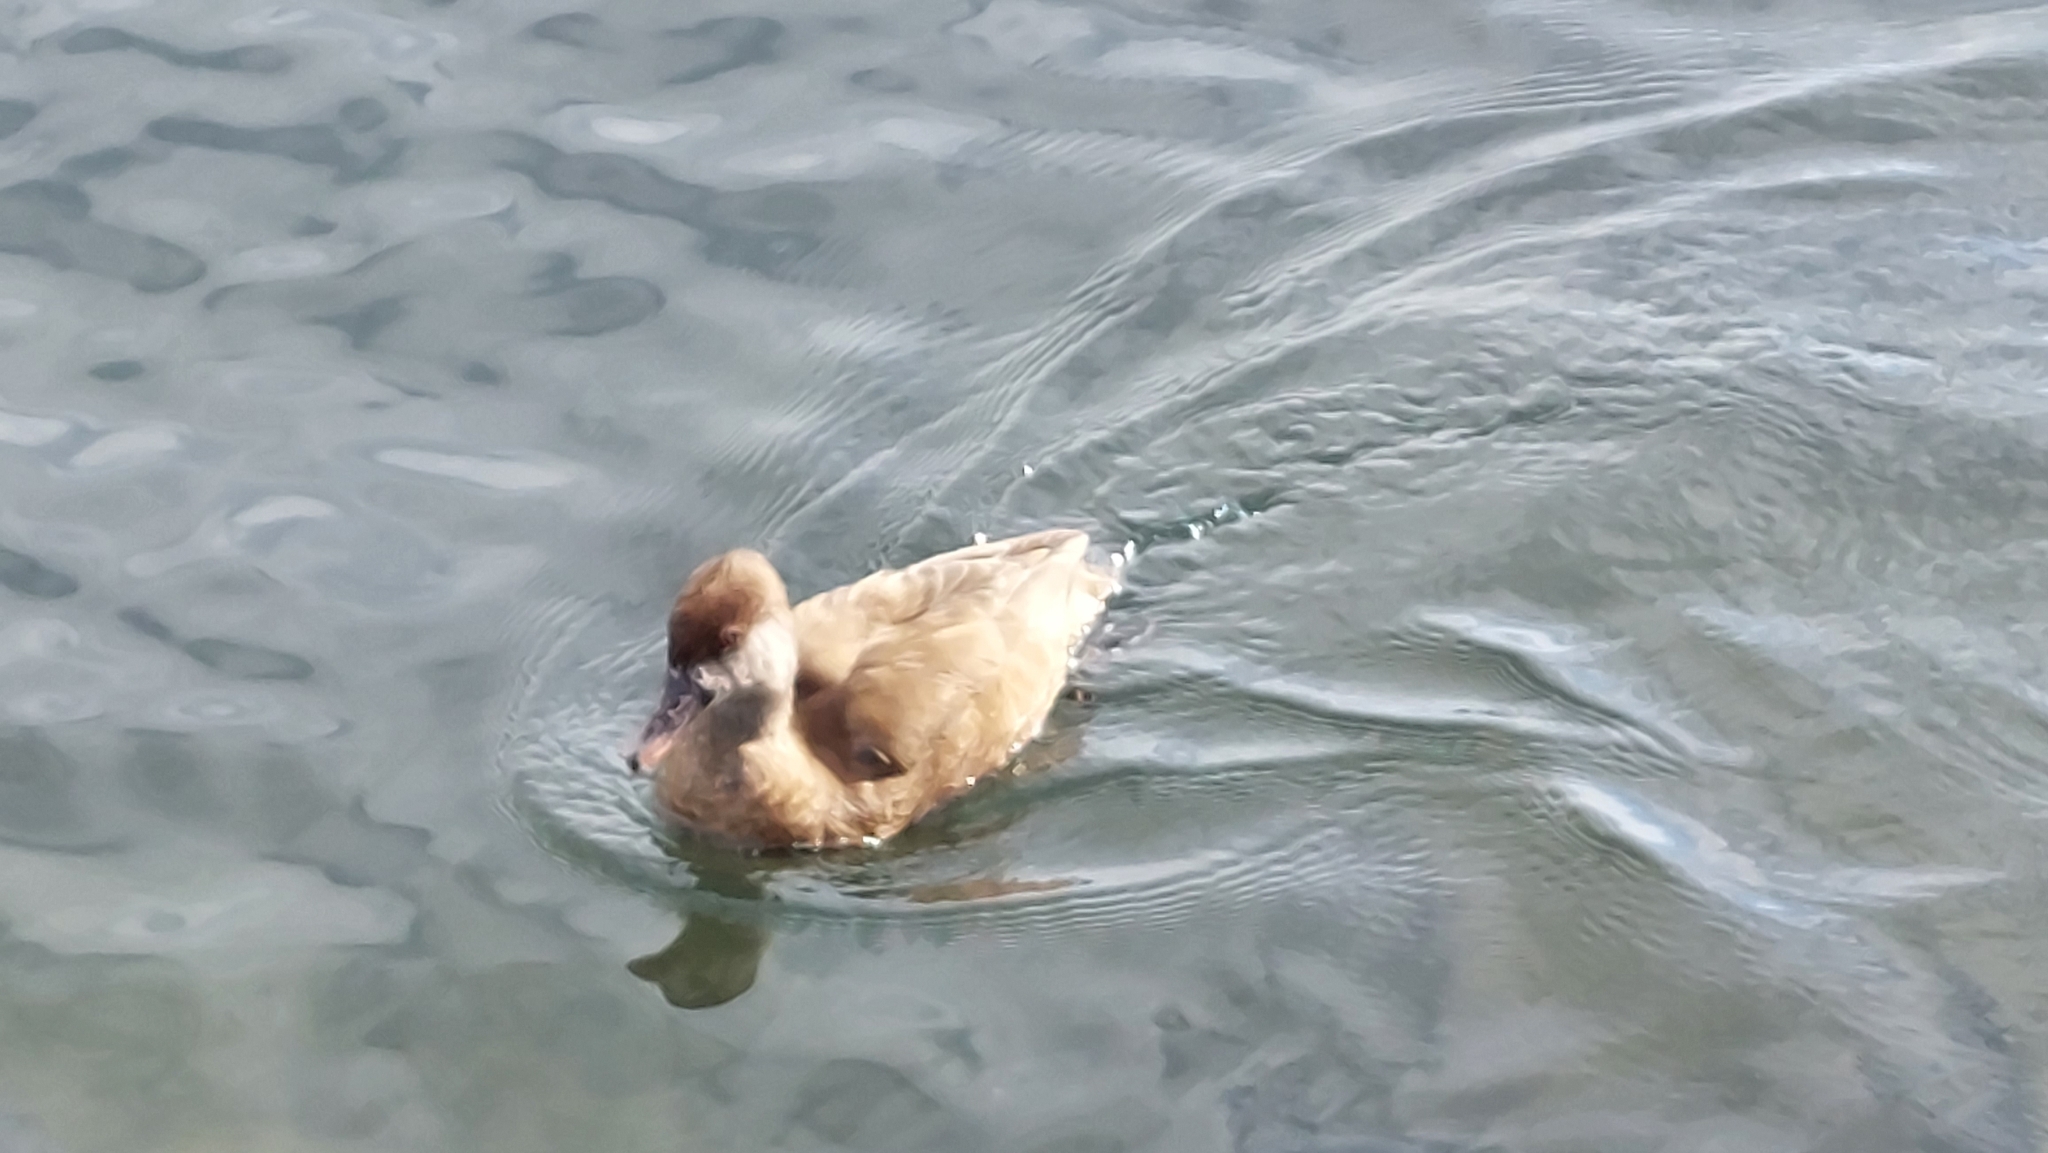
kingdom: Animalia
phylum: Chordata
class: Aves
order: Anseriformes
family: Anatidae
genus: Netta
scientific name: Netta rufina
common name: Red-crested pochard
